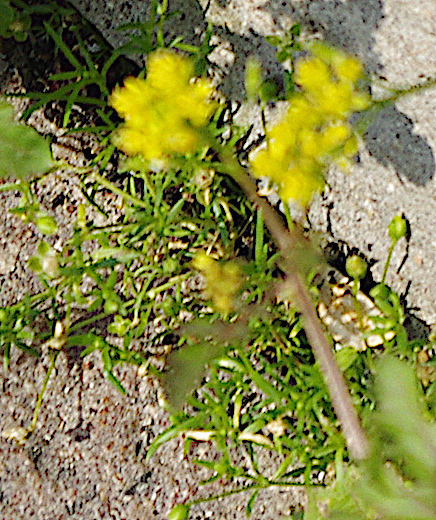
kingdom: Plantae
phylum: Tracheophyta
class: Magnoliopsida
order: Caryophyllales
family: Caryophyllaceae
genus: Sagina
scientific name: Sagina procumbens
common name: Procumbent pearlwort
